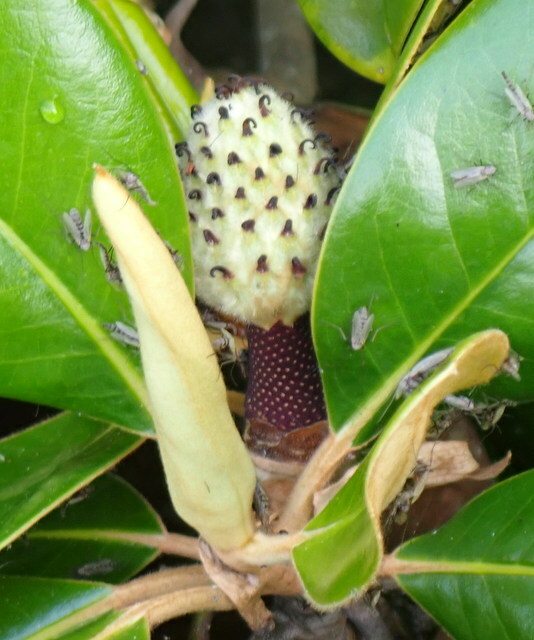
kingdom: Plantae
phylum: Tracheophyta
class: Magnoliopsida
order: Magnoliales
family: Magnoliaceae
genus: Magnolia
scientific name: Magnolia grandiflora
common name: Southern magnolia
